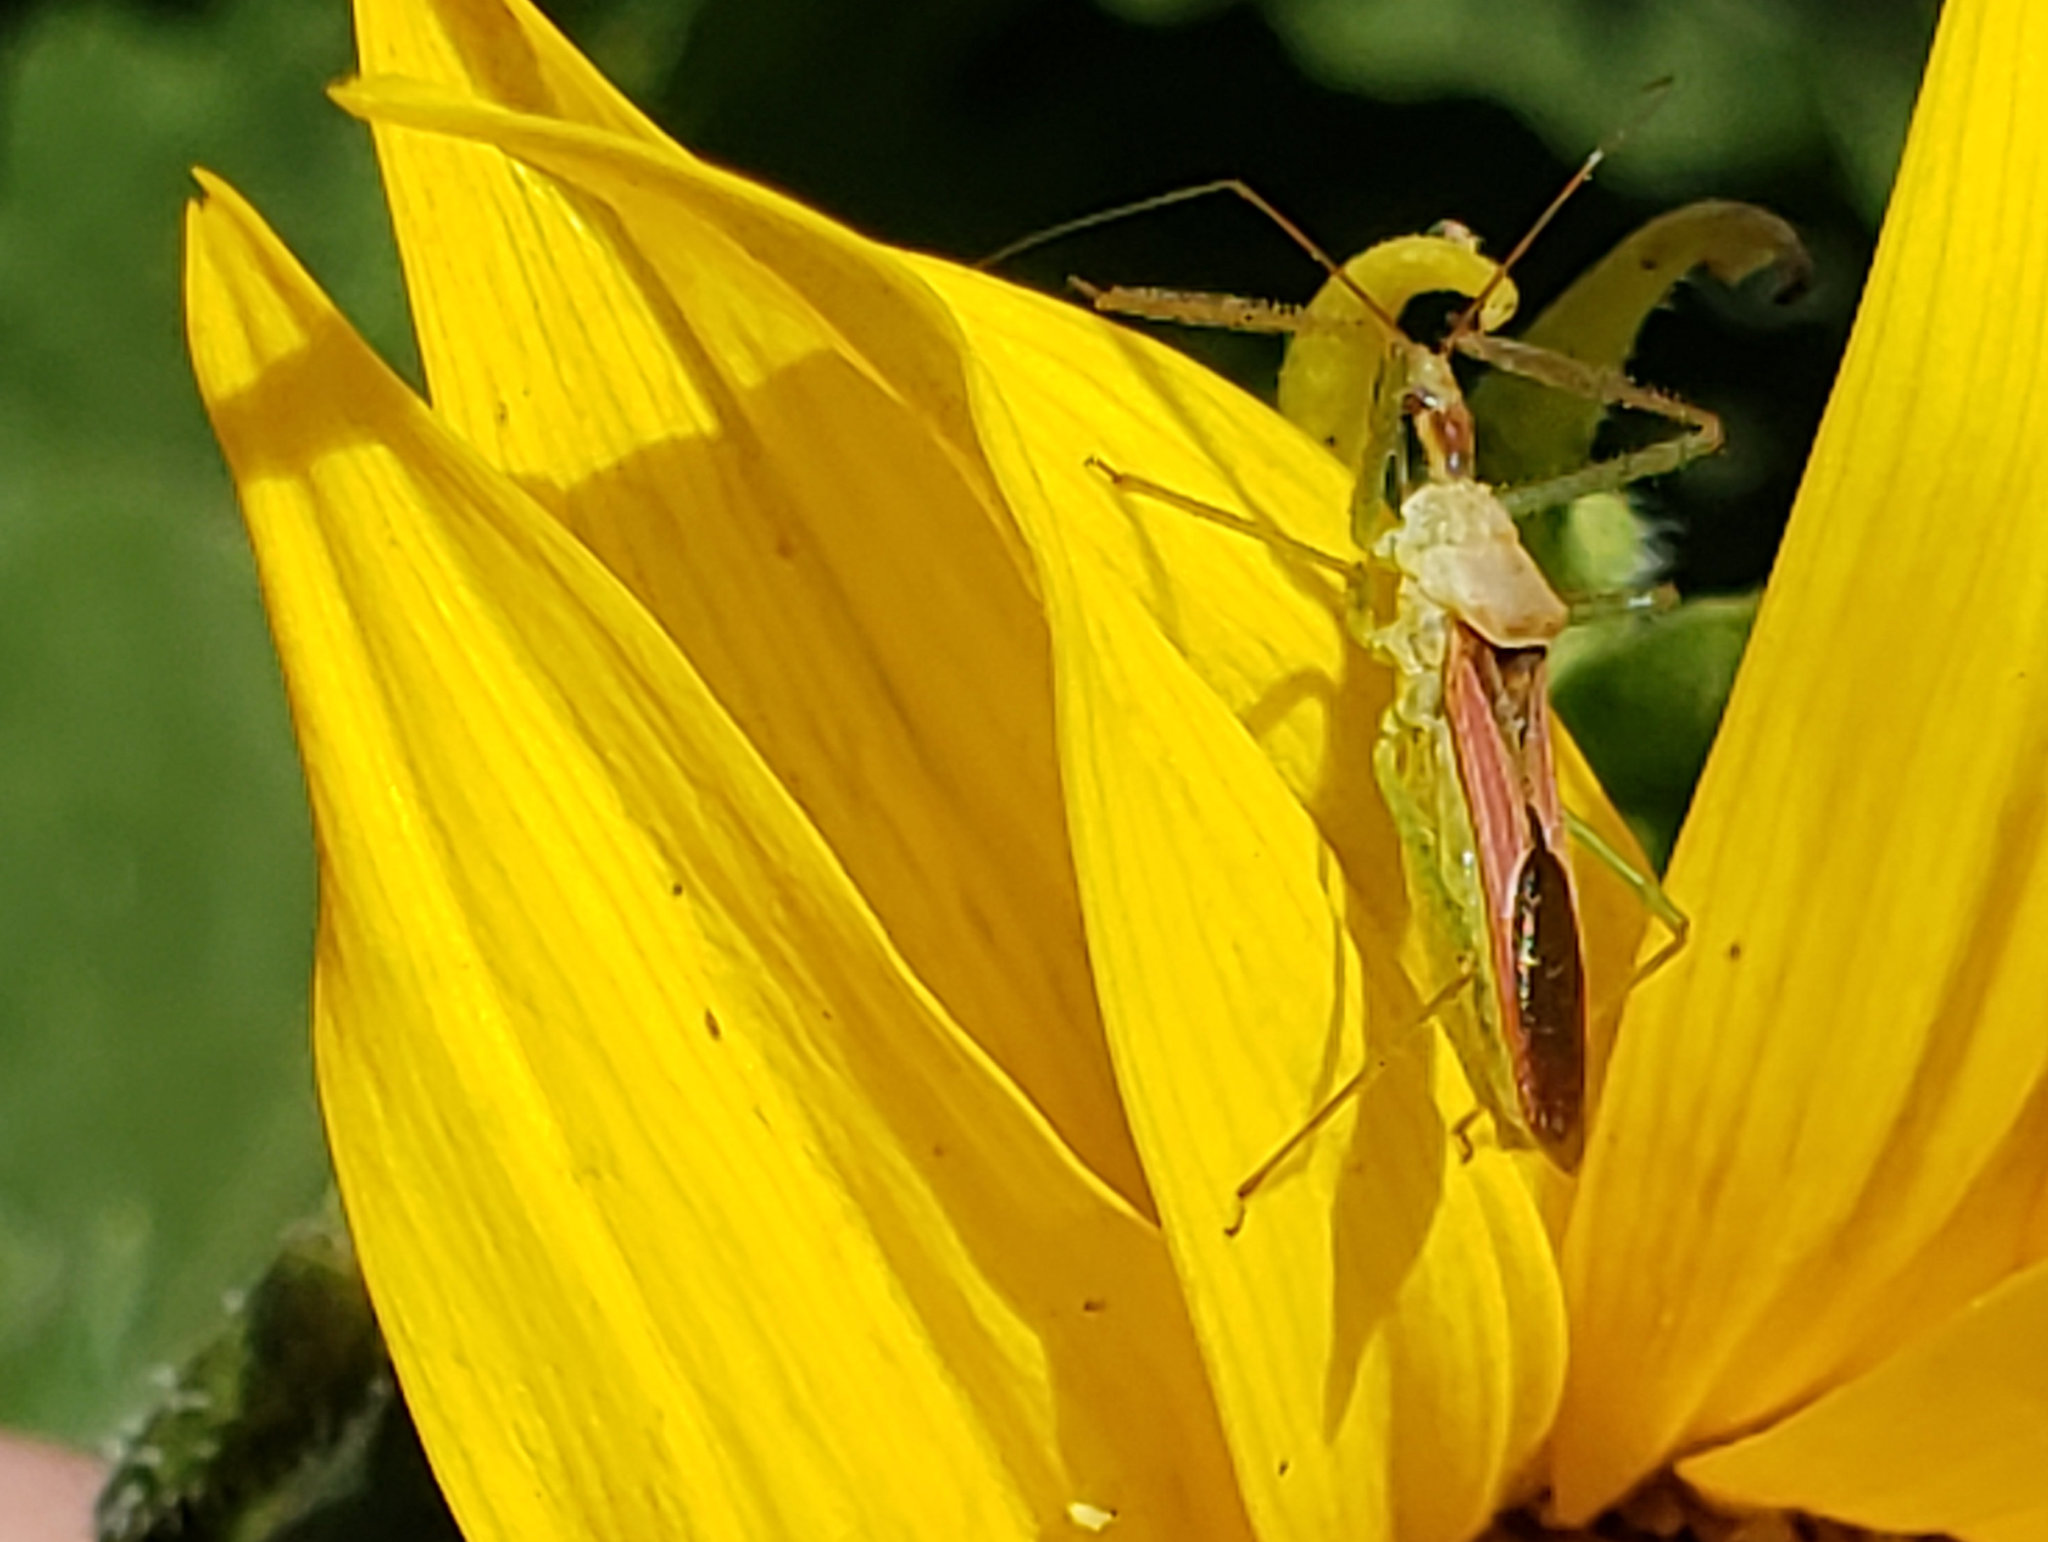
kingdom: Animalia
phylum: Arthropoda
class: Insecta
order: Hemiptera
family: Reduviidae
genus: Zelus
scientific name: Zelus renardii
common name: Assassin bug
